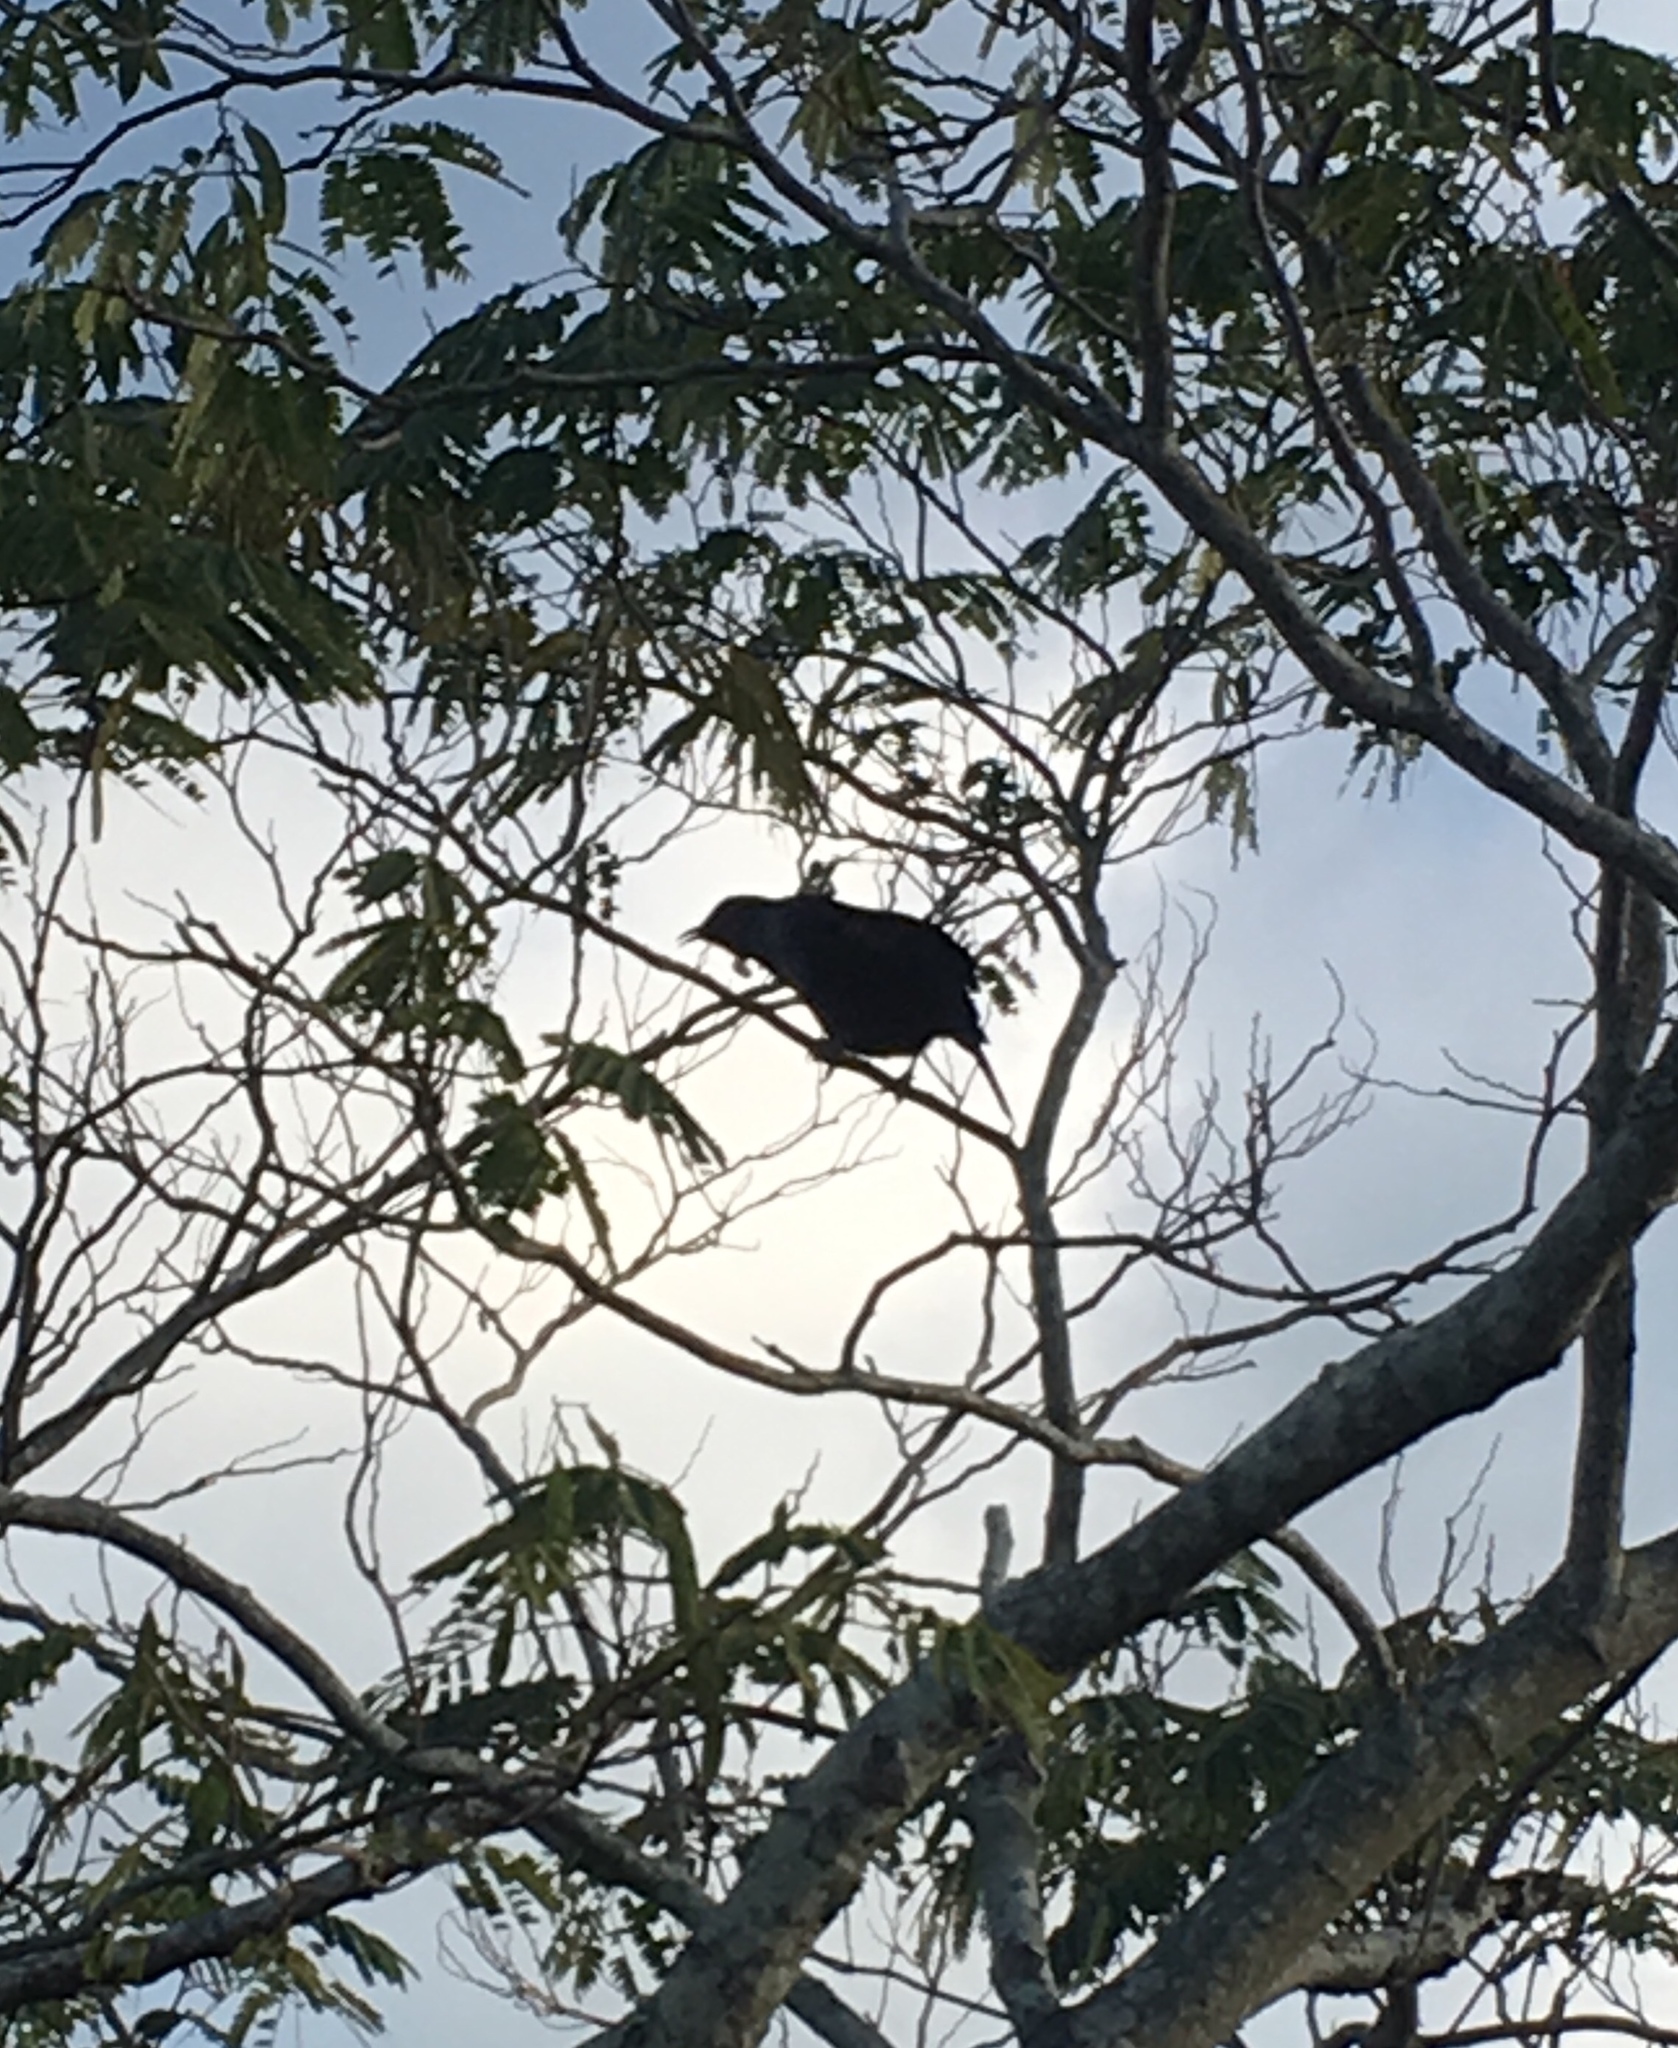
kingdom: Animalia
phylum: Chordata
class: Aves
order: Passeriformes
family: Meliphagidae
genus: Prosthemadera
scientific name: Prosthemadera novaeseelandiae
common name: Tui
